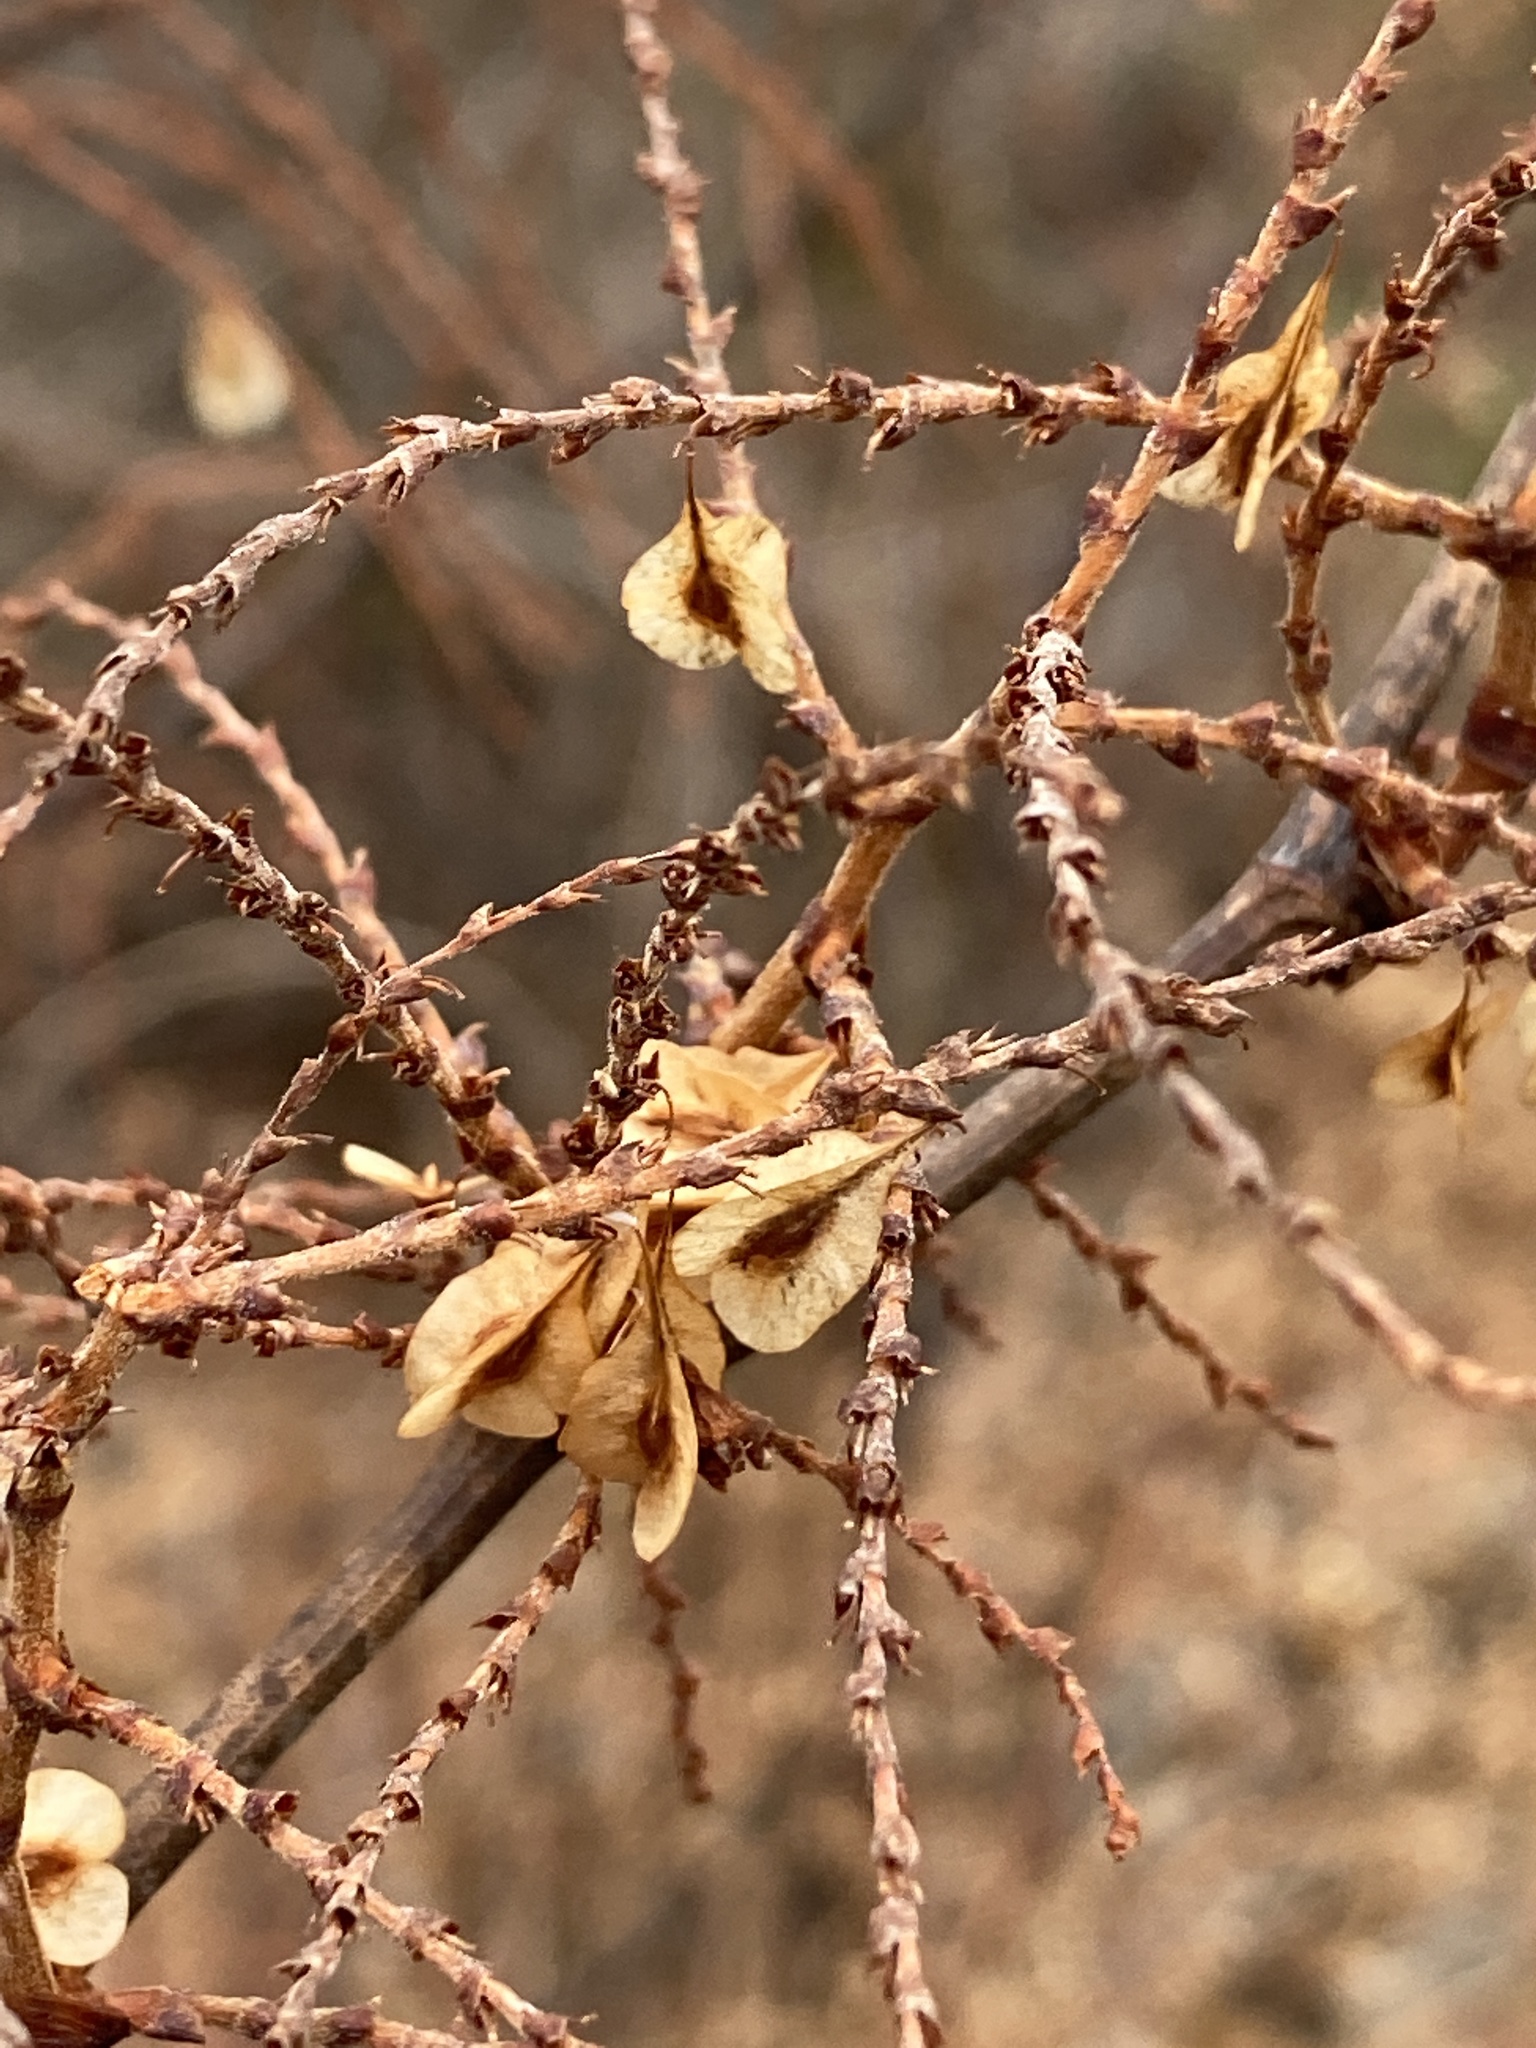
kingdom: Plantae
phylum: Tracheophyta
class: Magnoliopsida
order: Caryophyllales
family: Polygonaceae
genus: Reynoutria
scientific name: Reynoutria japonica
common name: Japanese knotweed
